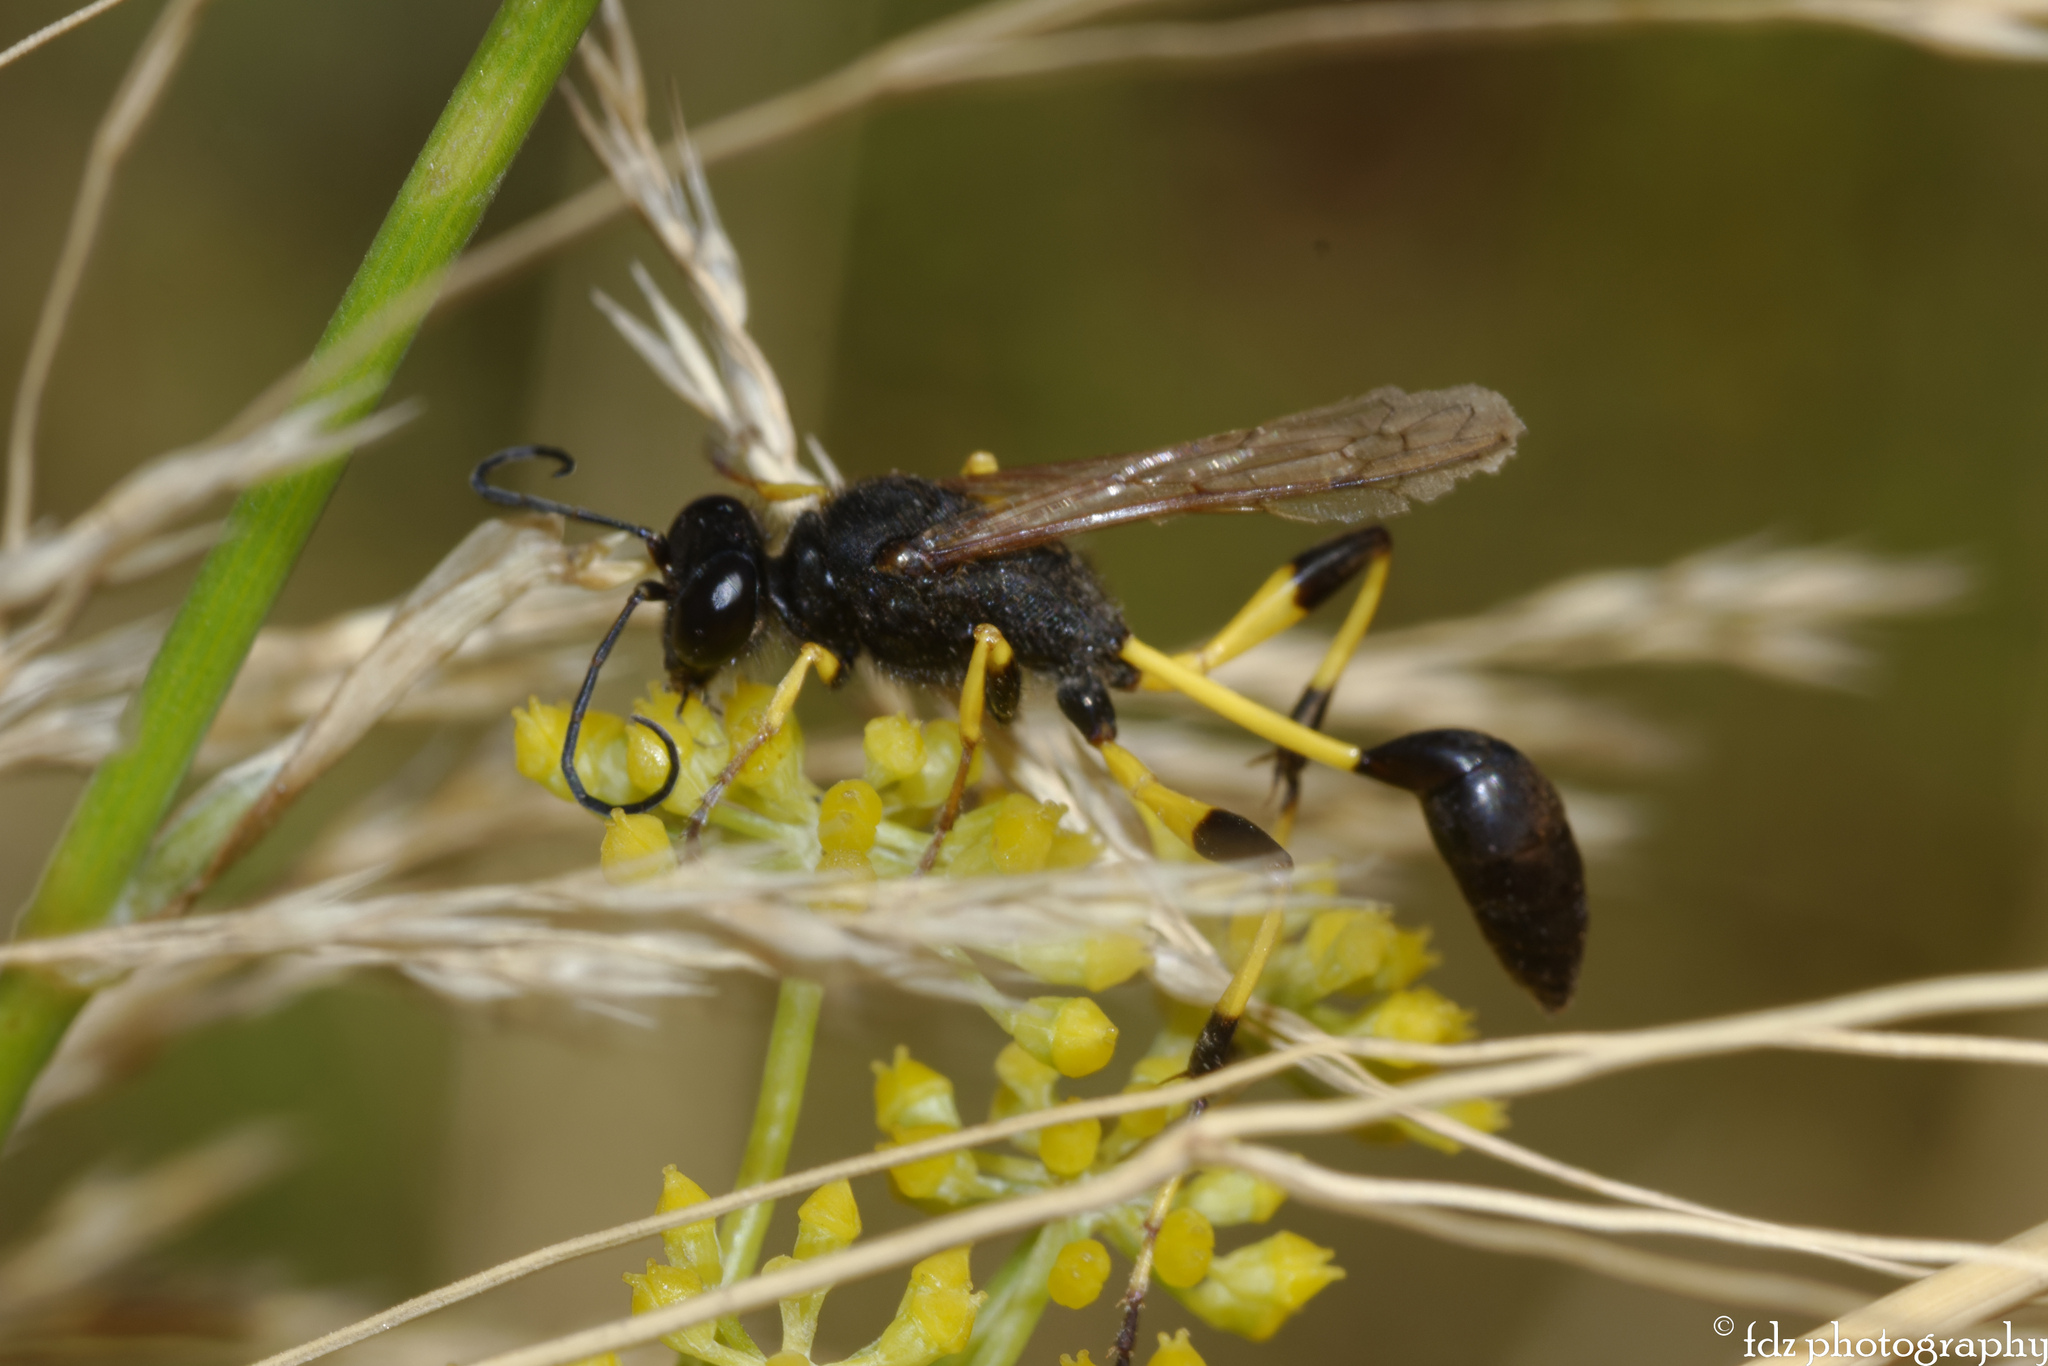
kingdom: Animalia
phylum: Arthropoda
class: Insecta
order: Hymenoptera
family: Sphecidae
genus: Sceliphron
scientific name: Sceliphron spirifex
